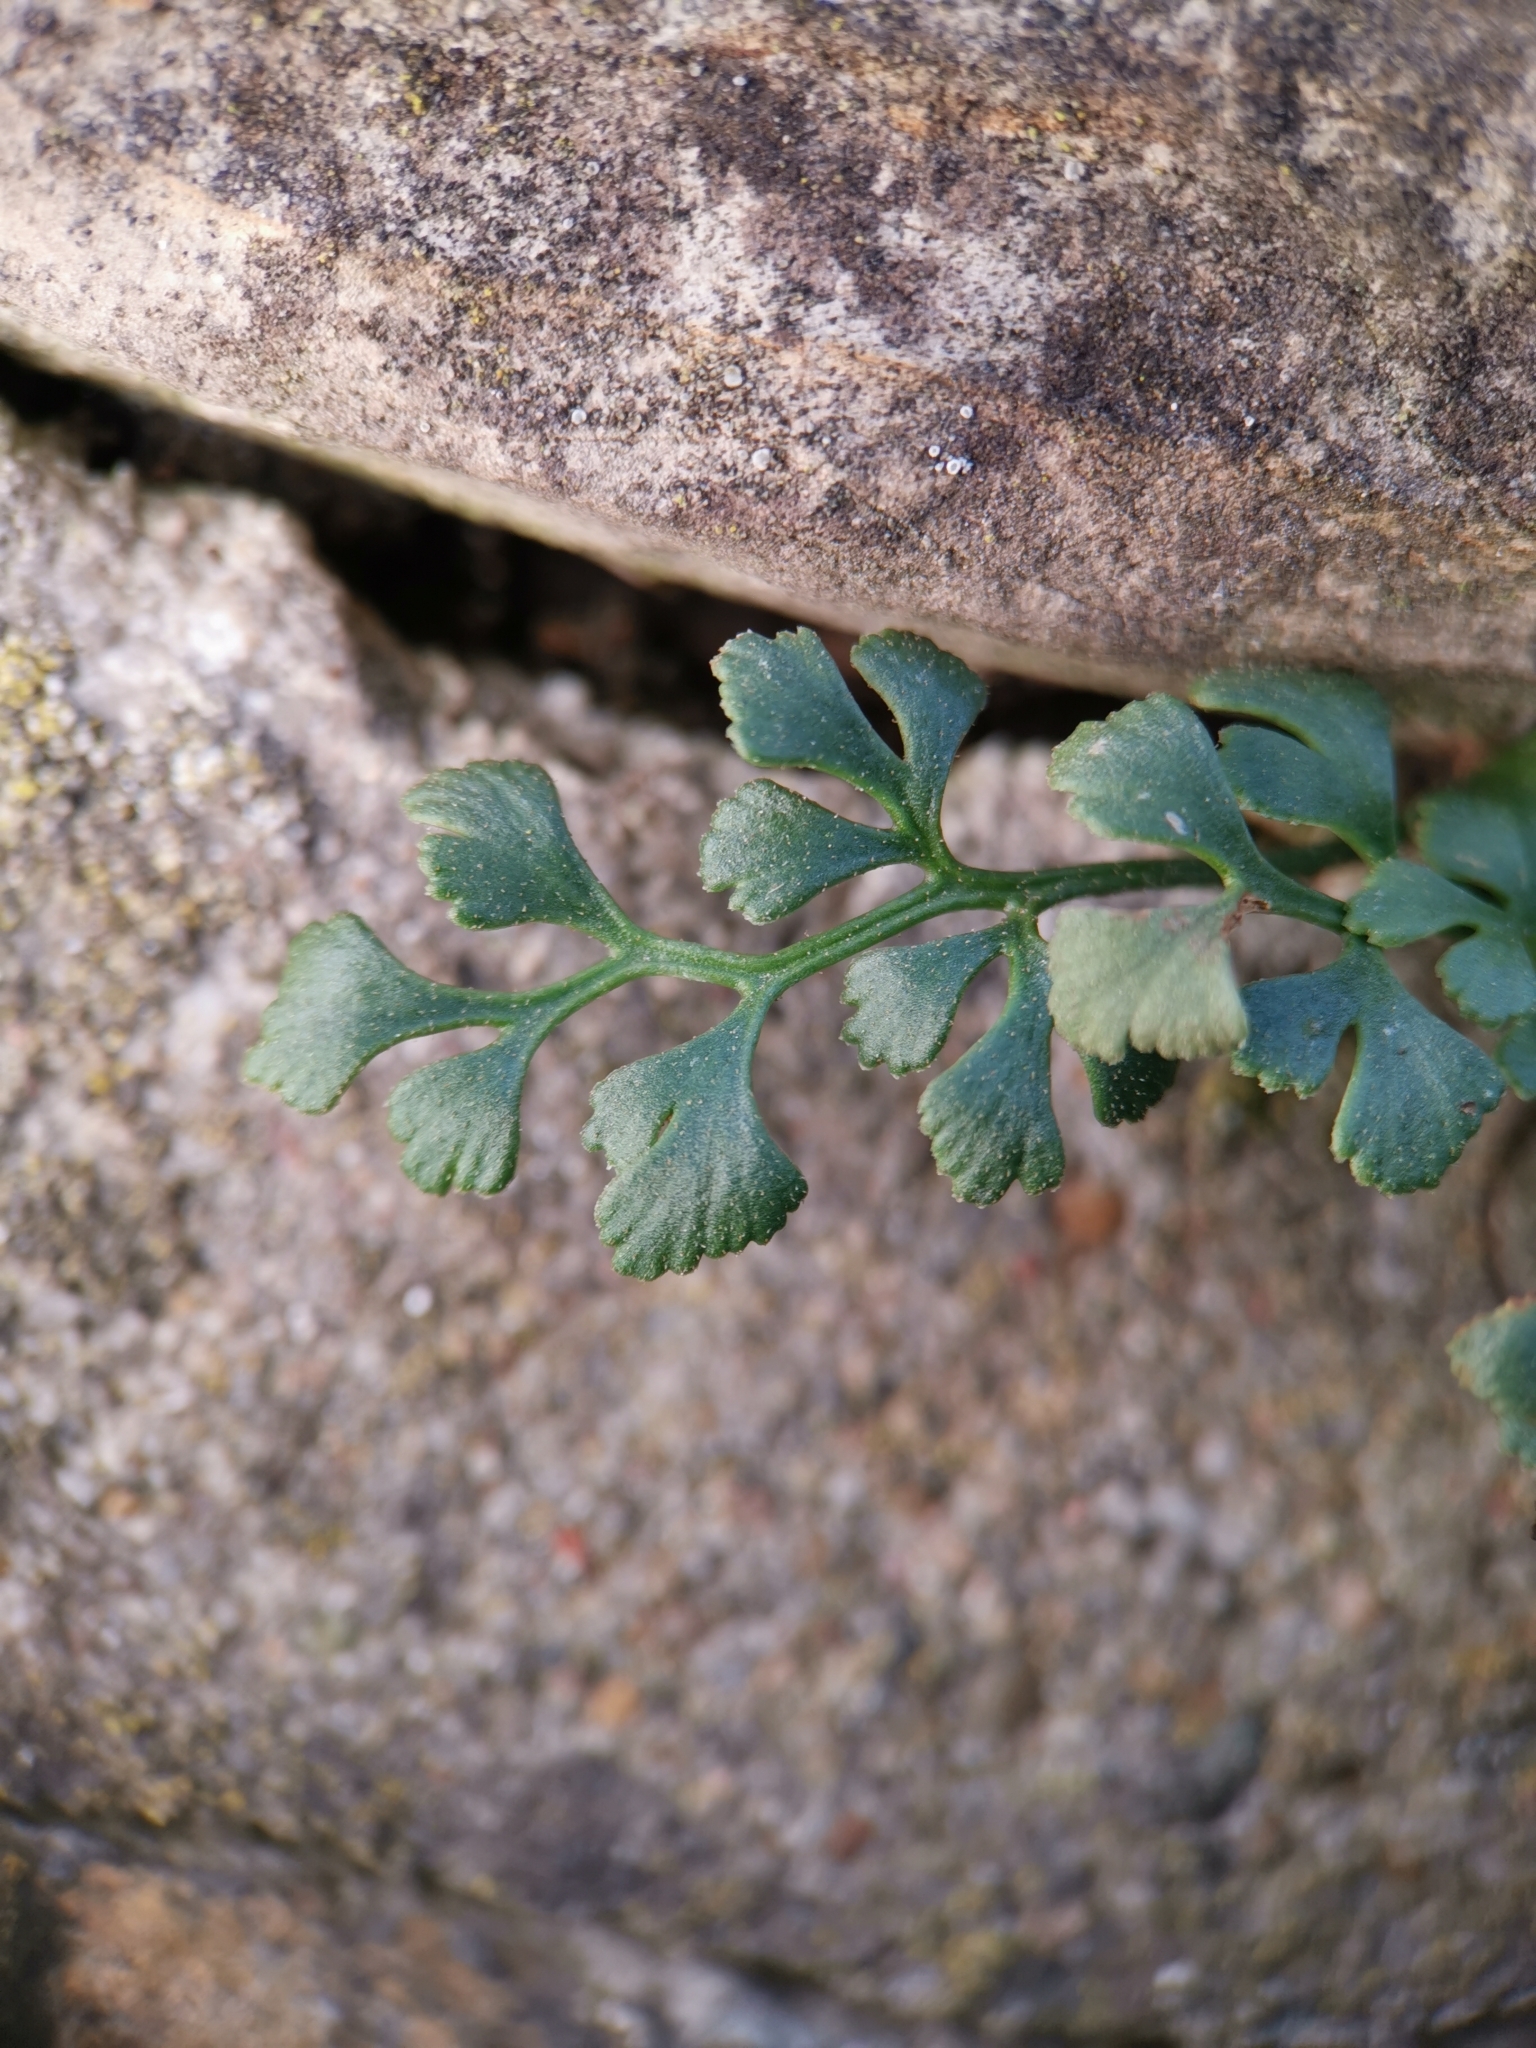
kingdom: Plantae
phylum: Tracheophyta
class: Polypodiopsida
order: Polypodiales
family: Aspleniaceae
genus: Asplenium
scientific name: Asplenium ruta-muraria
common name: Wall-rue
